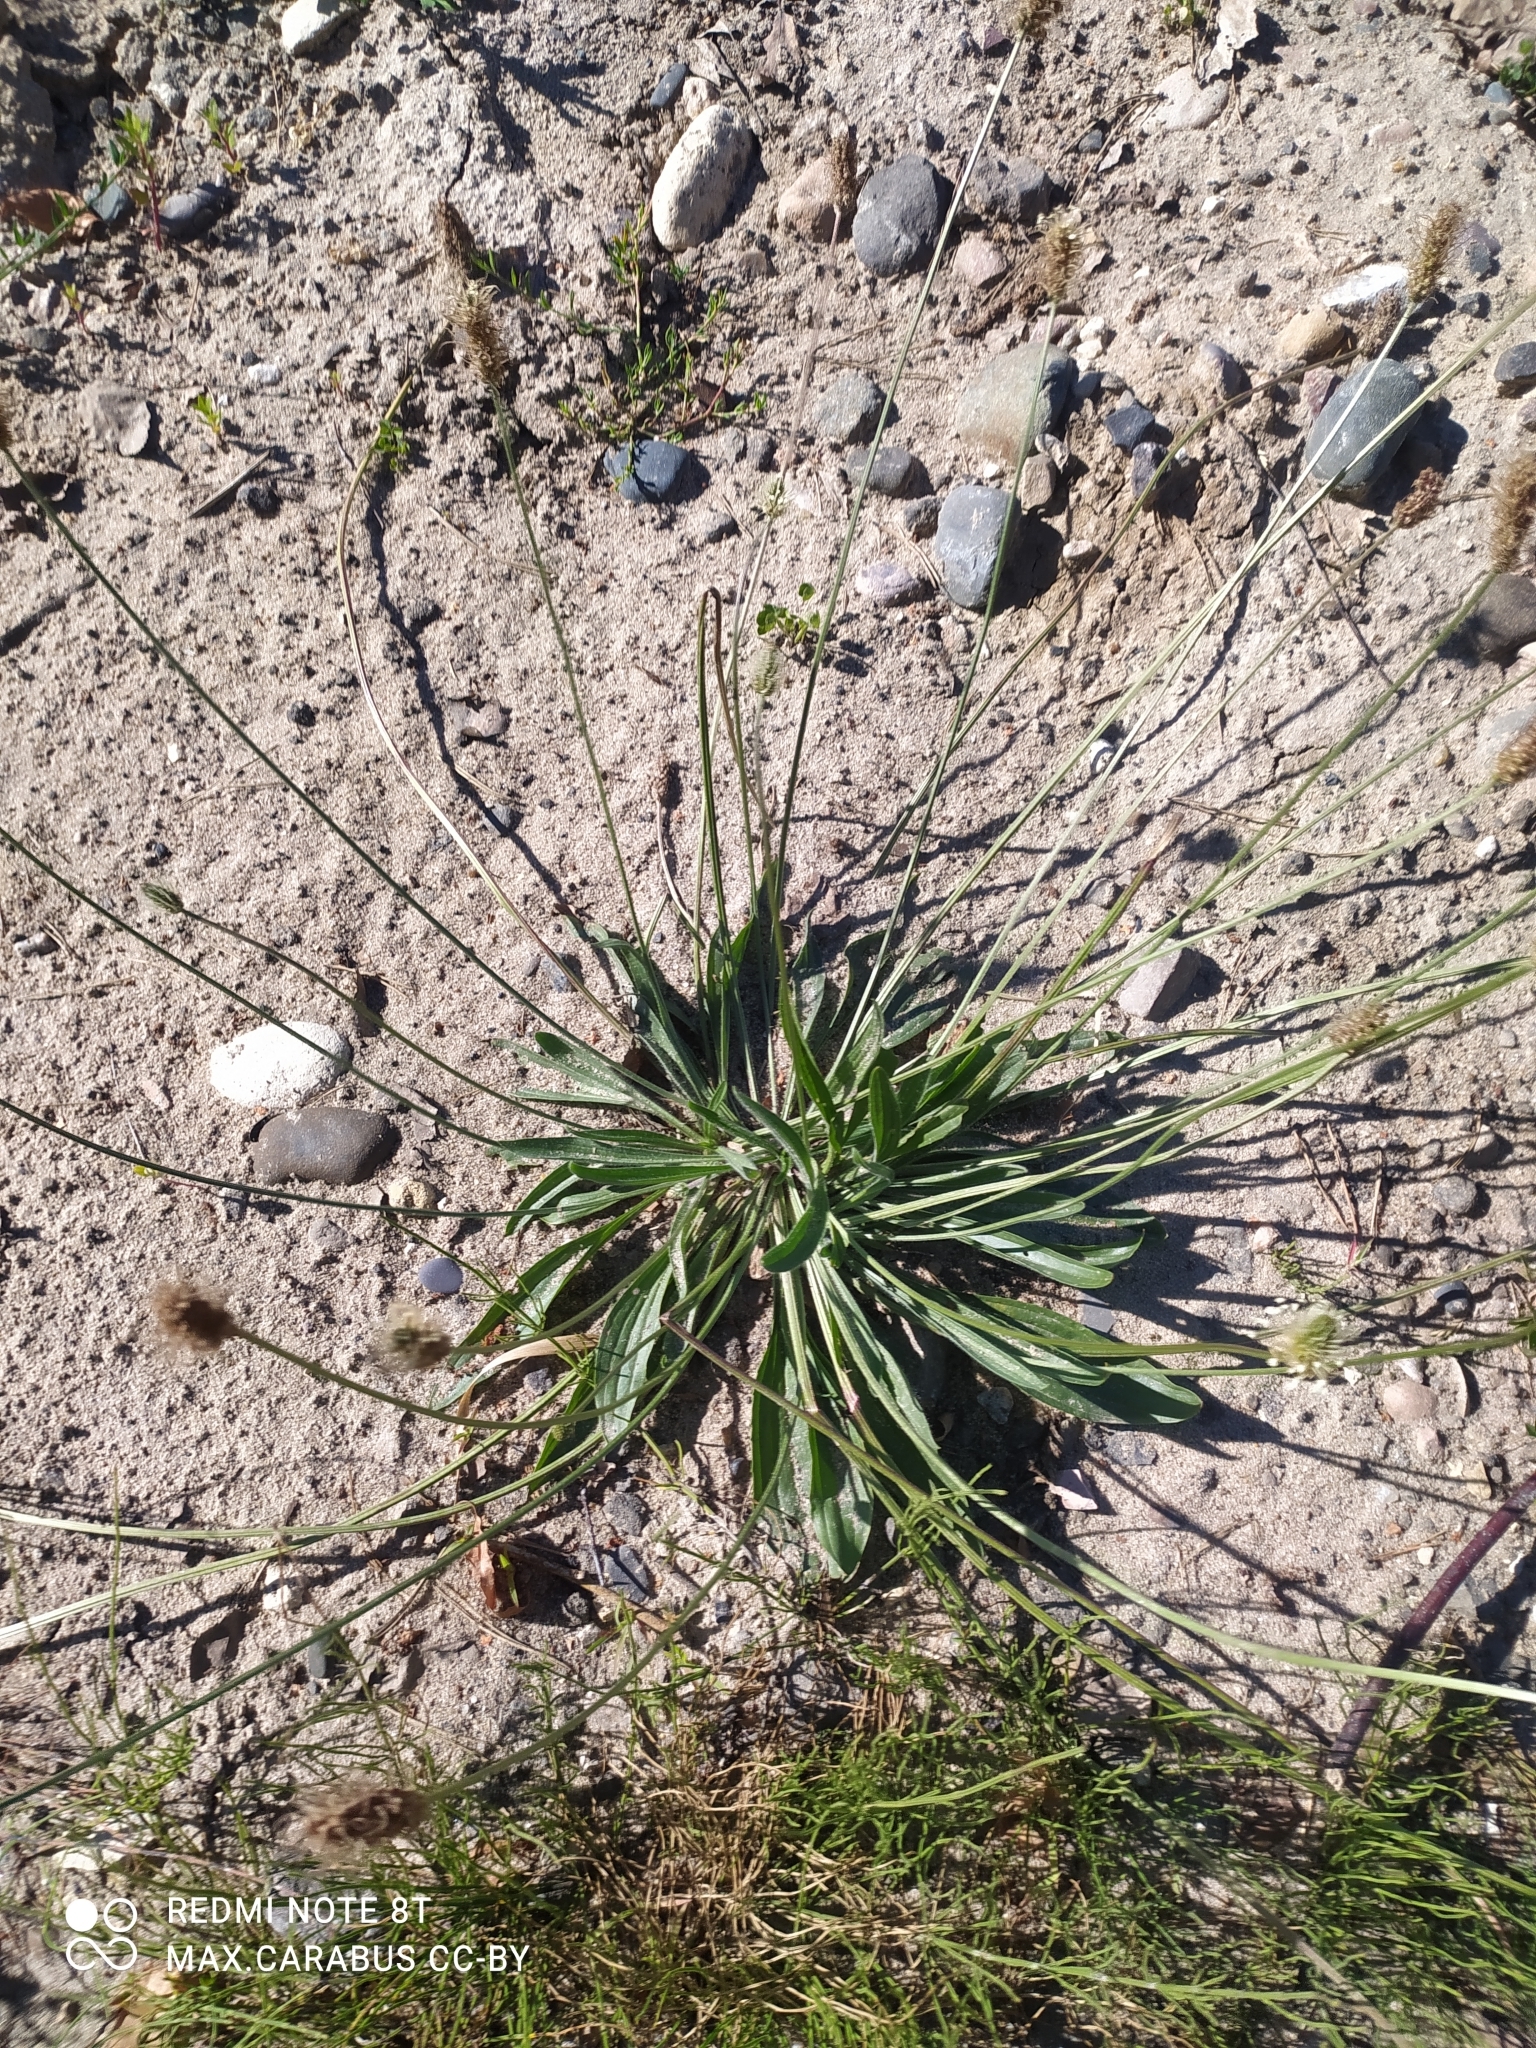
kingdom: Plantae
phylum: Tracheophyta
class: Magnoliopsida
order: Lamiales
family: Plantaginaceae
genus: Plantago
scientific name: Plantago lanceolata
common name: Ribwort plantain
